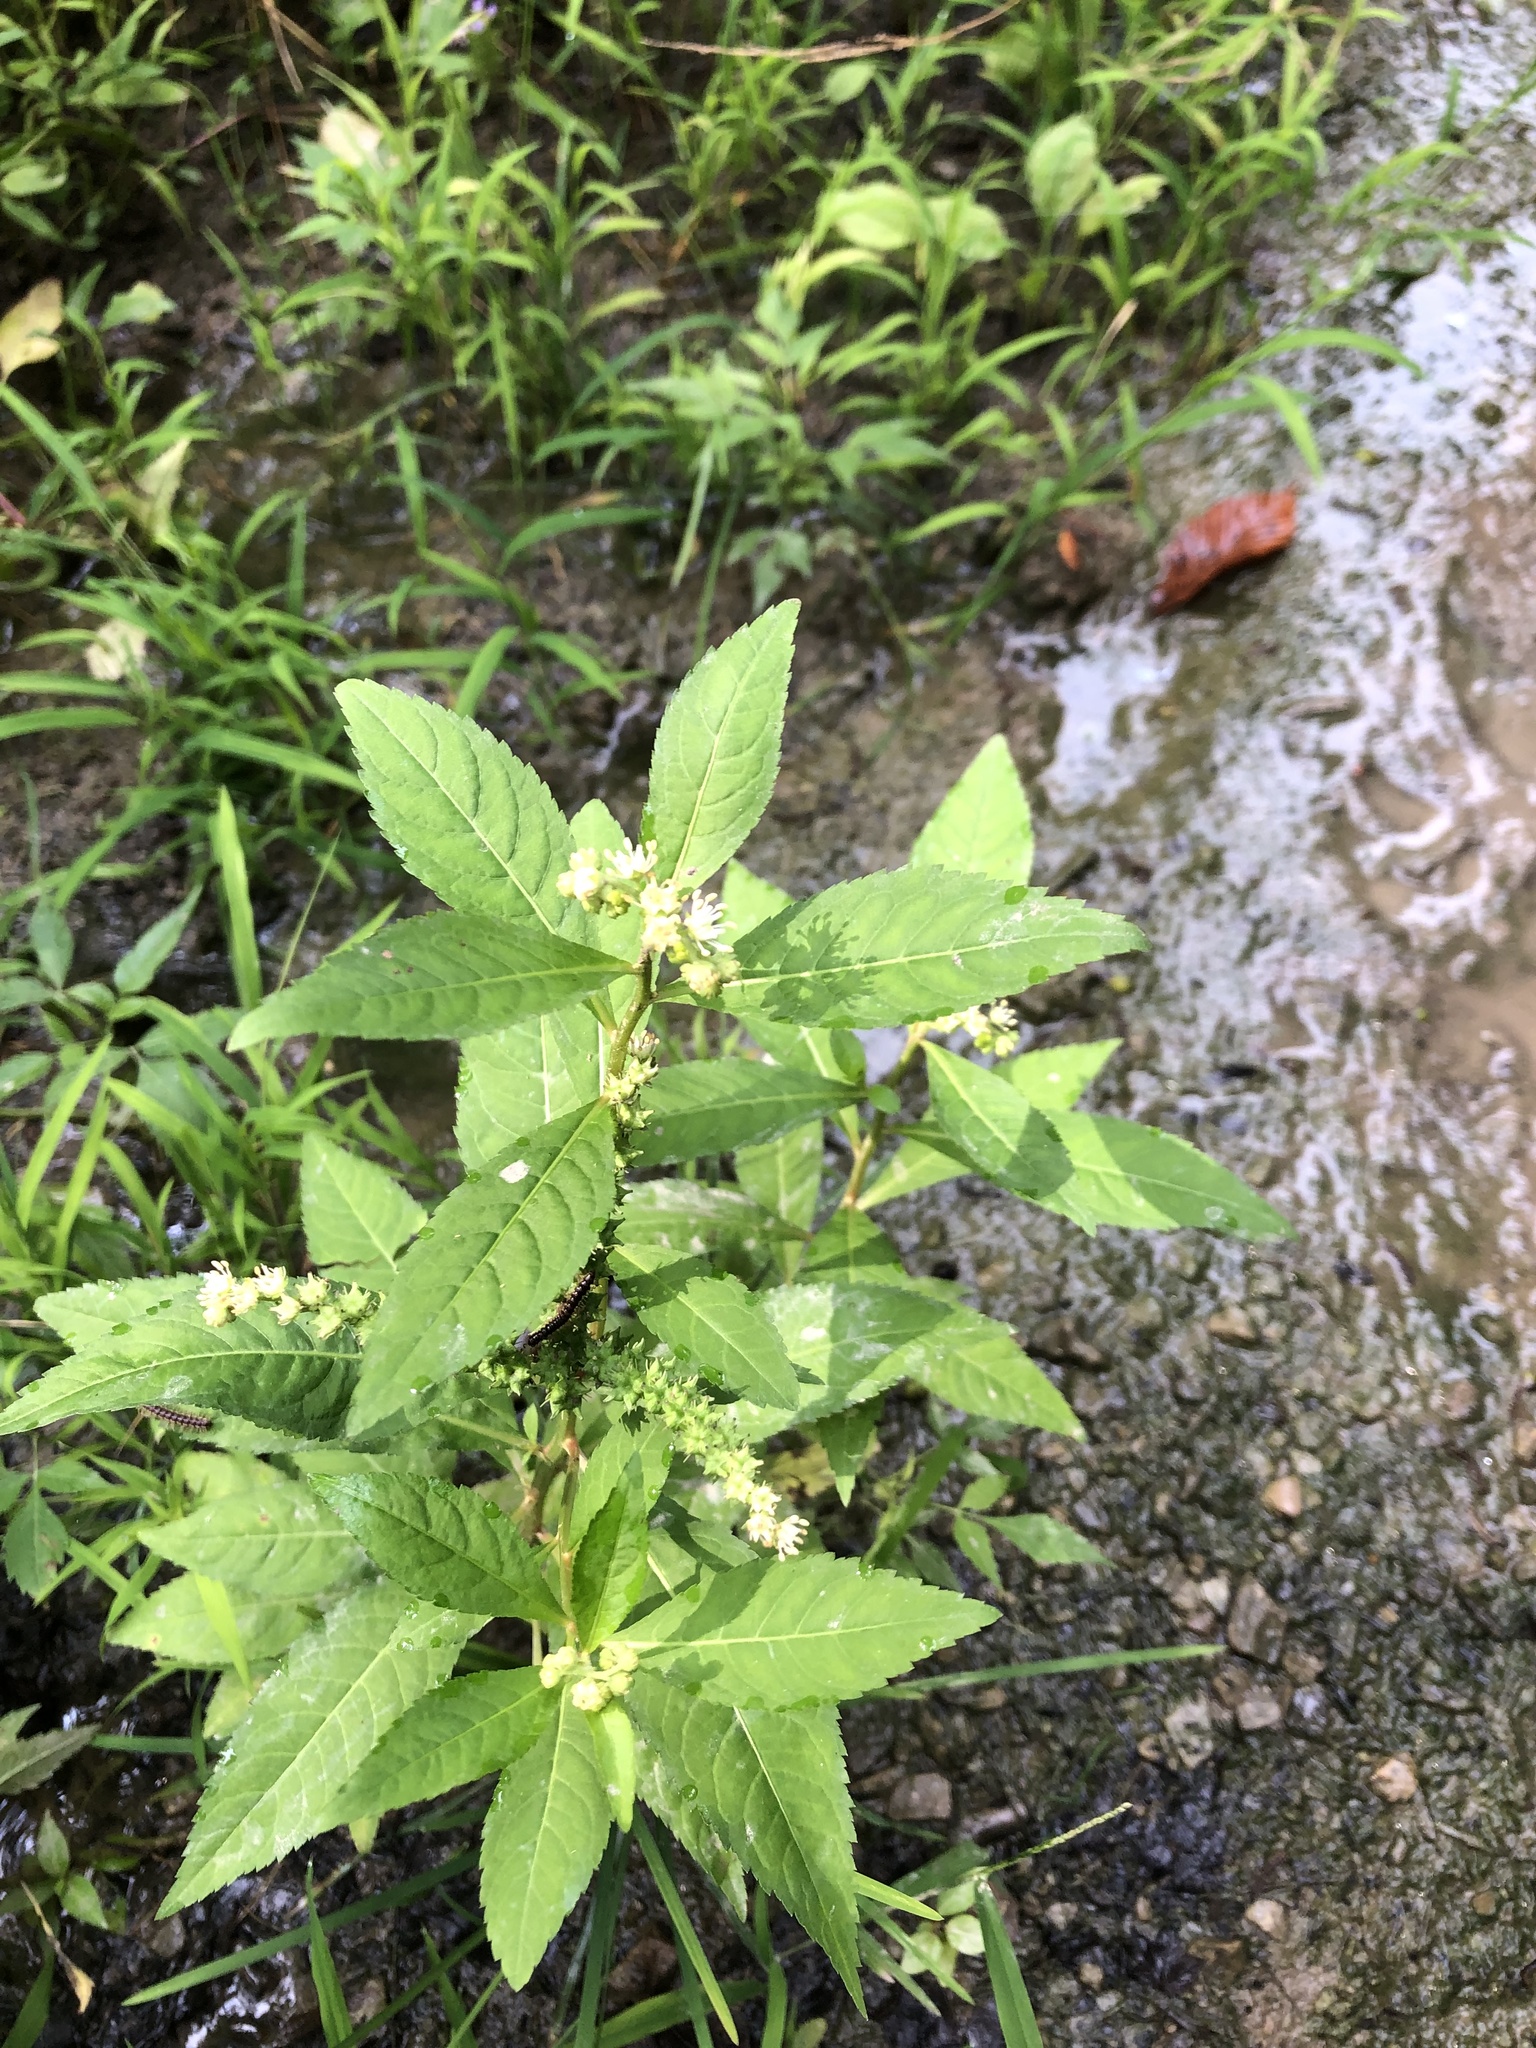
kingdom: Plantae
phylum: Tracheophyta
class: Magnoliopsida
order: Saxifragales
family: Penthoraceae
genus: Penthorum
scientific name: Penthorum sedoides
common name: Ditch stonecrop
